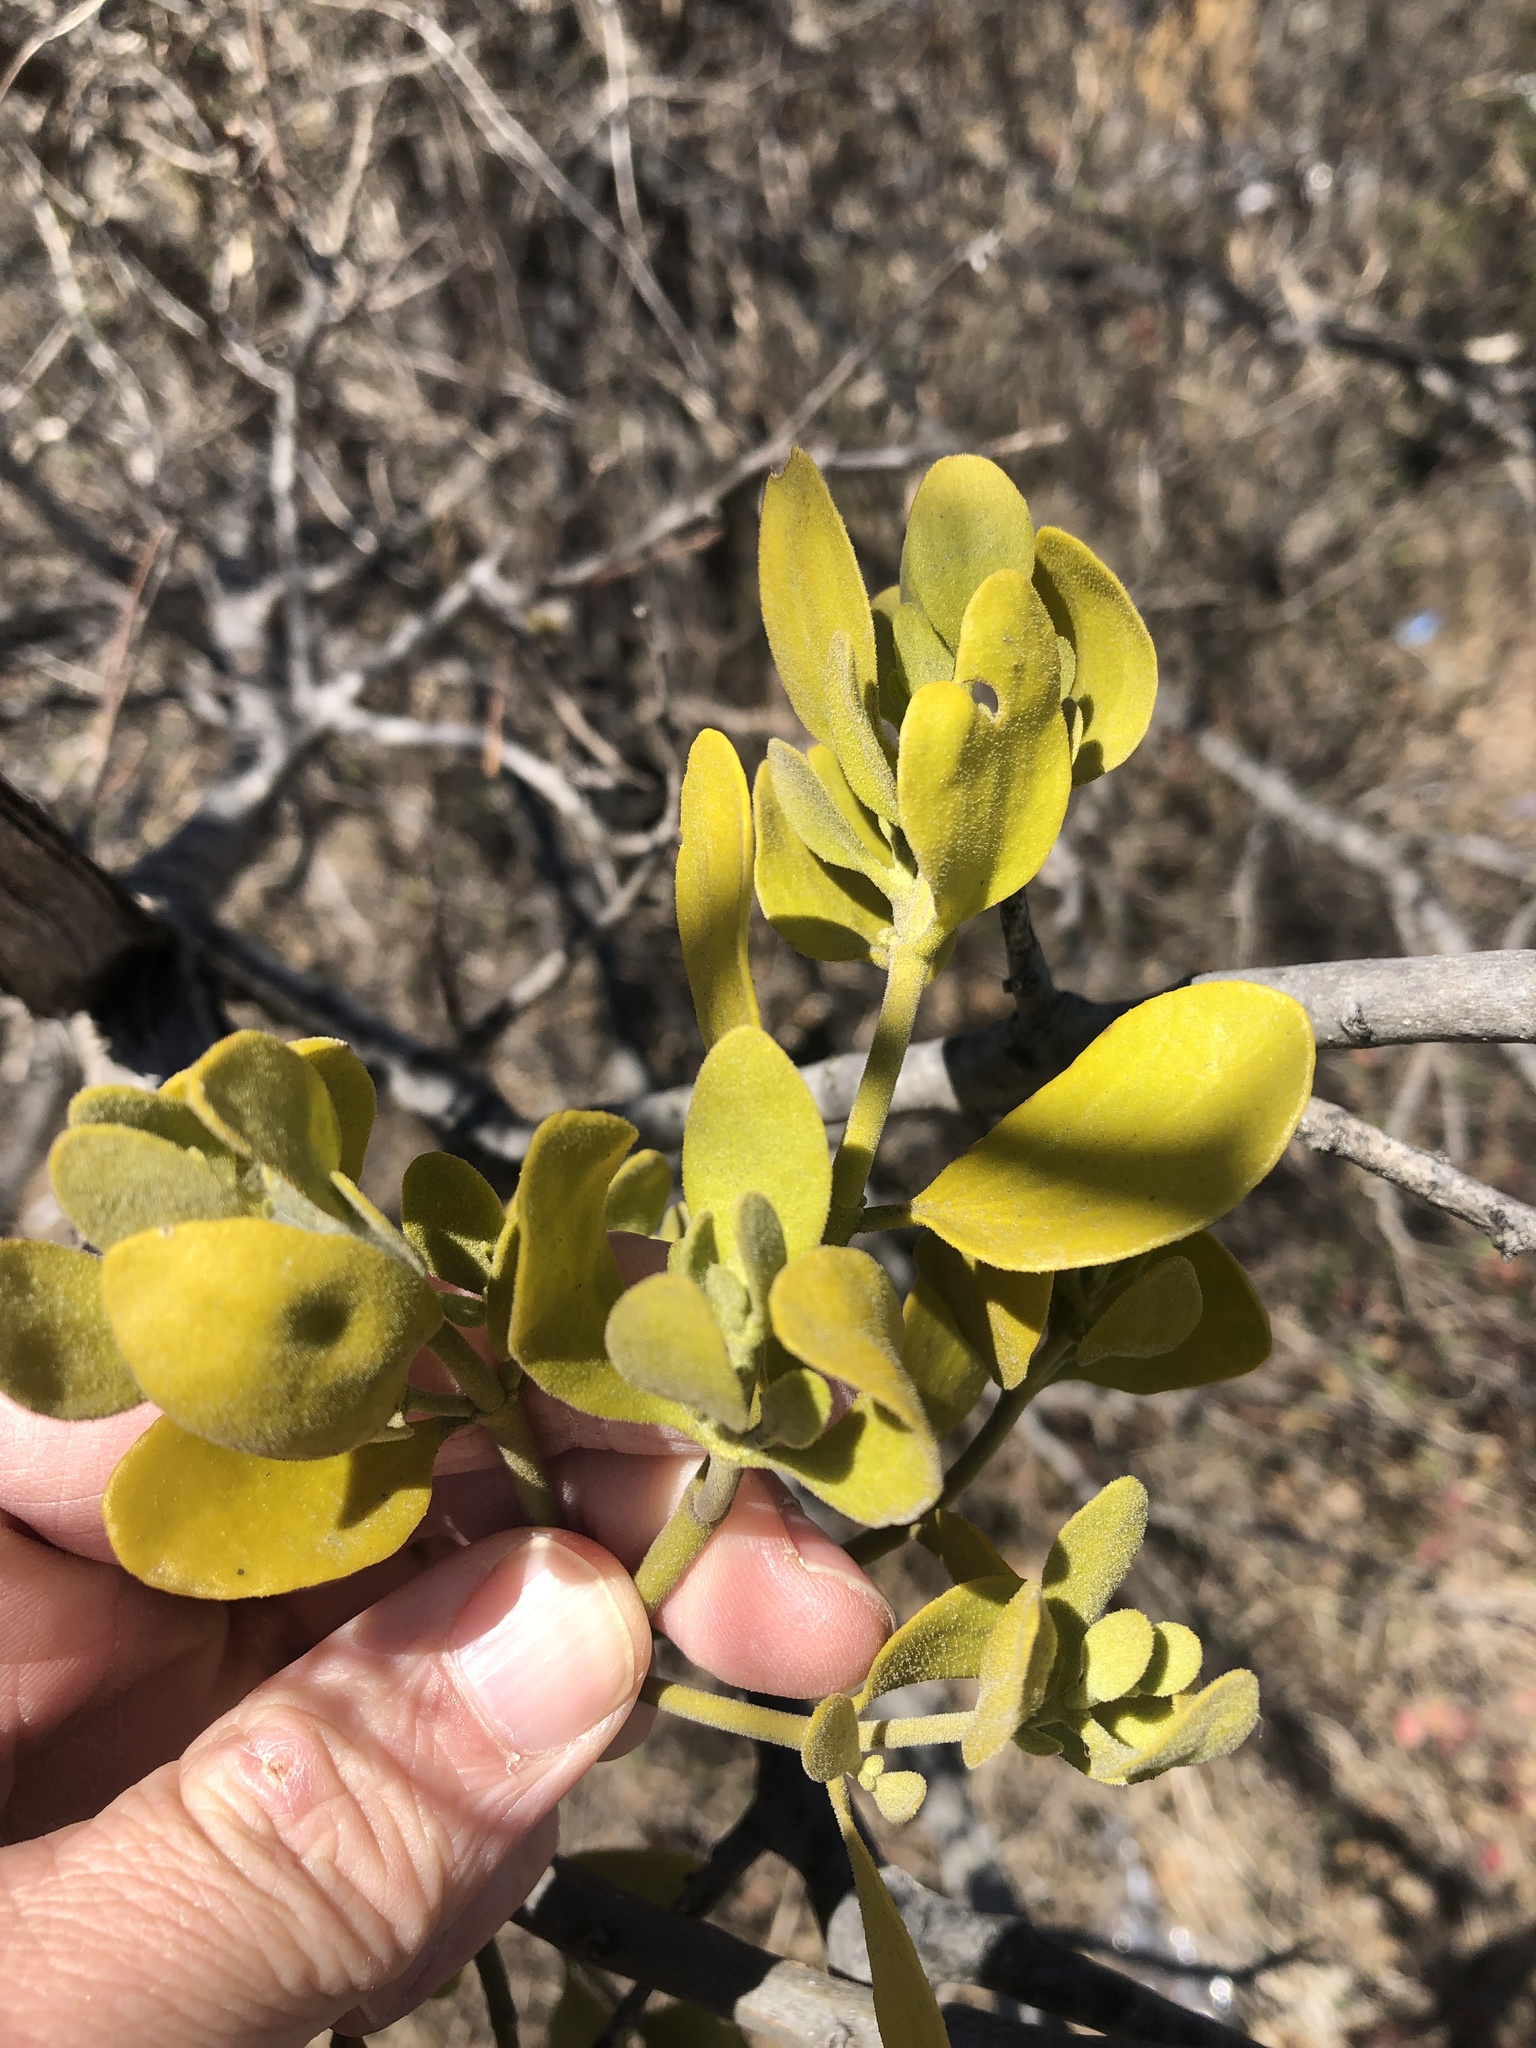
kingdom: Plantae
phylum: Tracheophyta
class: Magnoliopsida
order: Santalales
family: Viscaceae
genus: Phoradendron
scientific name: Phoradendron leucarpum
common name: Pacific mistletoe
